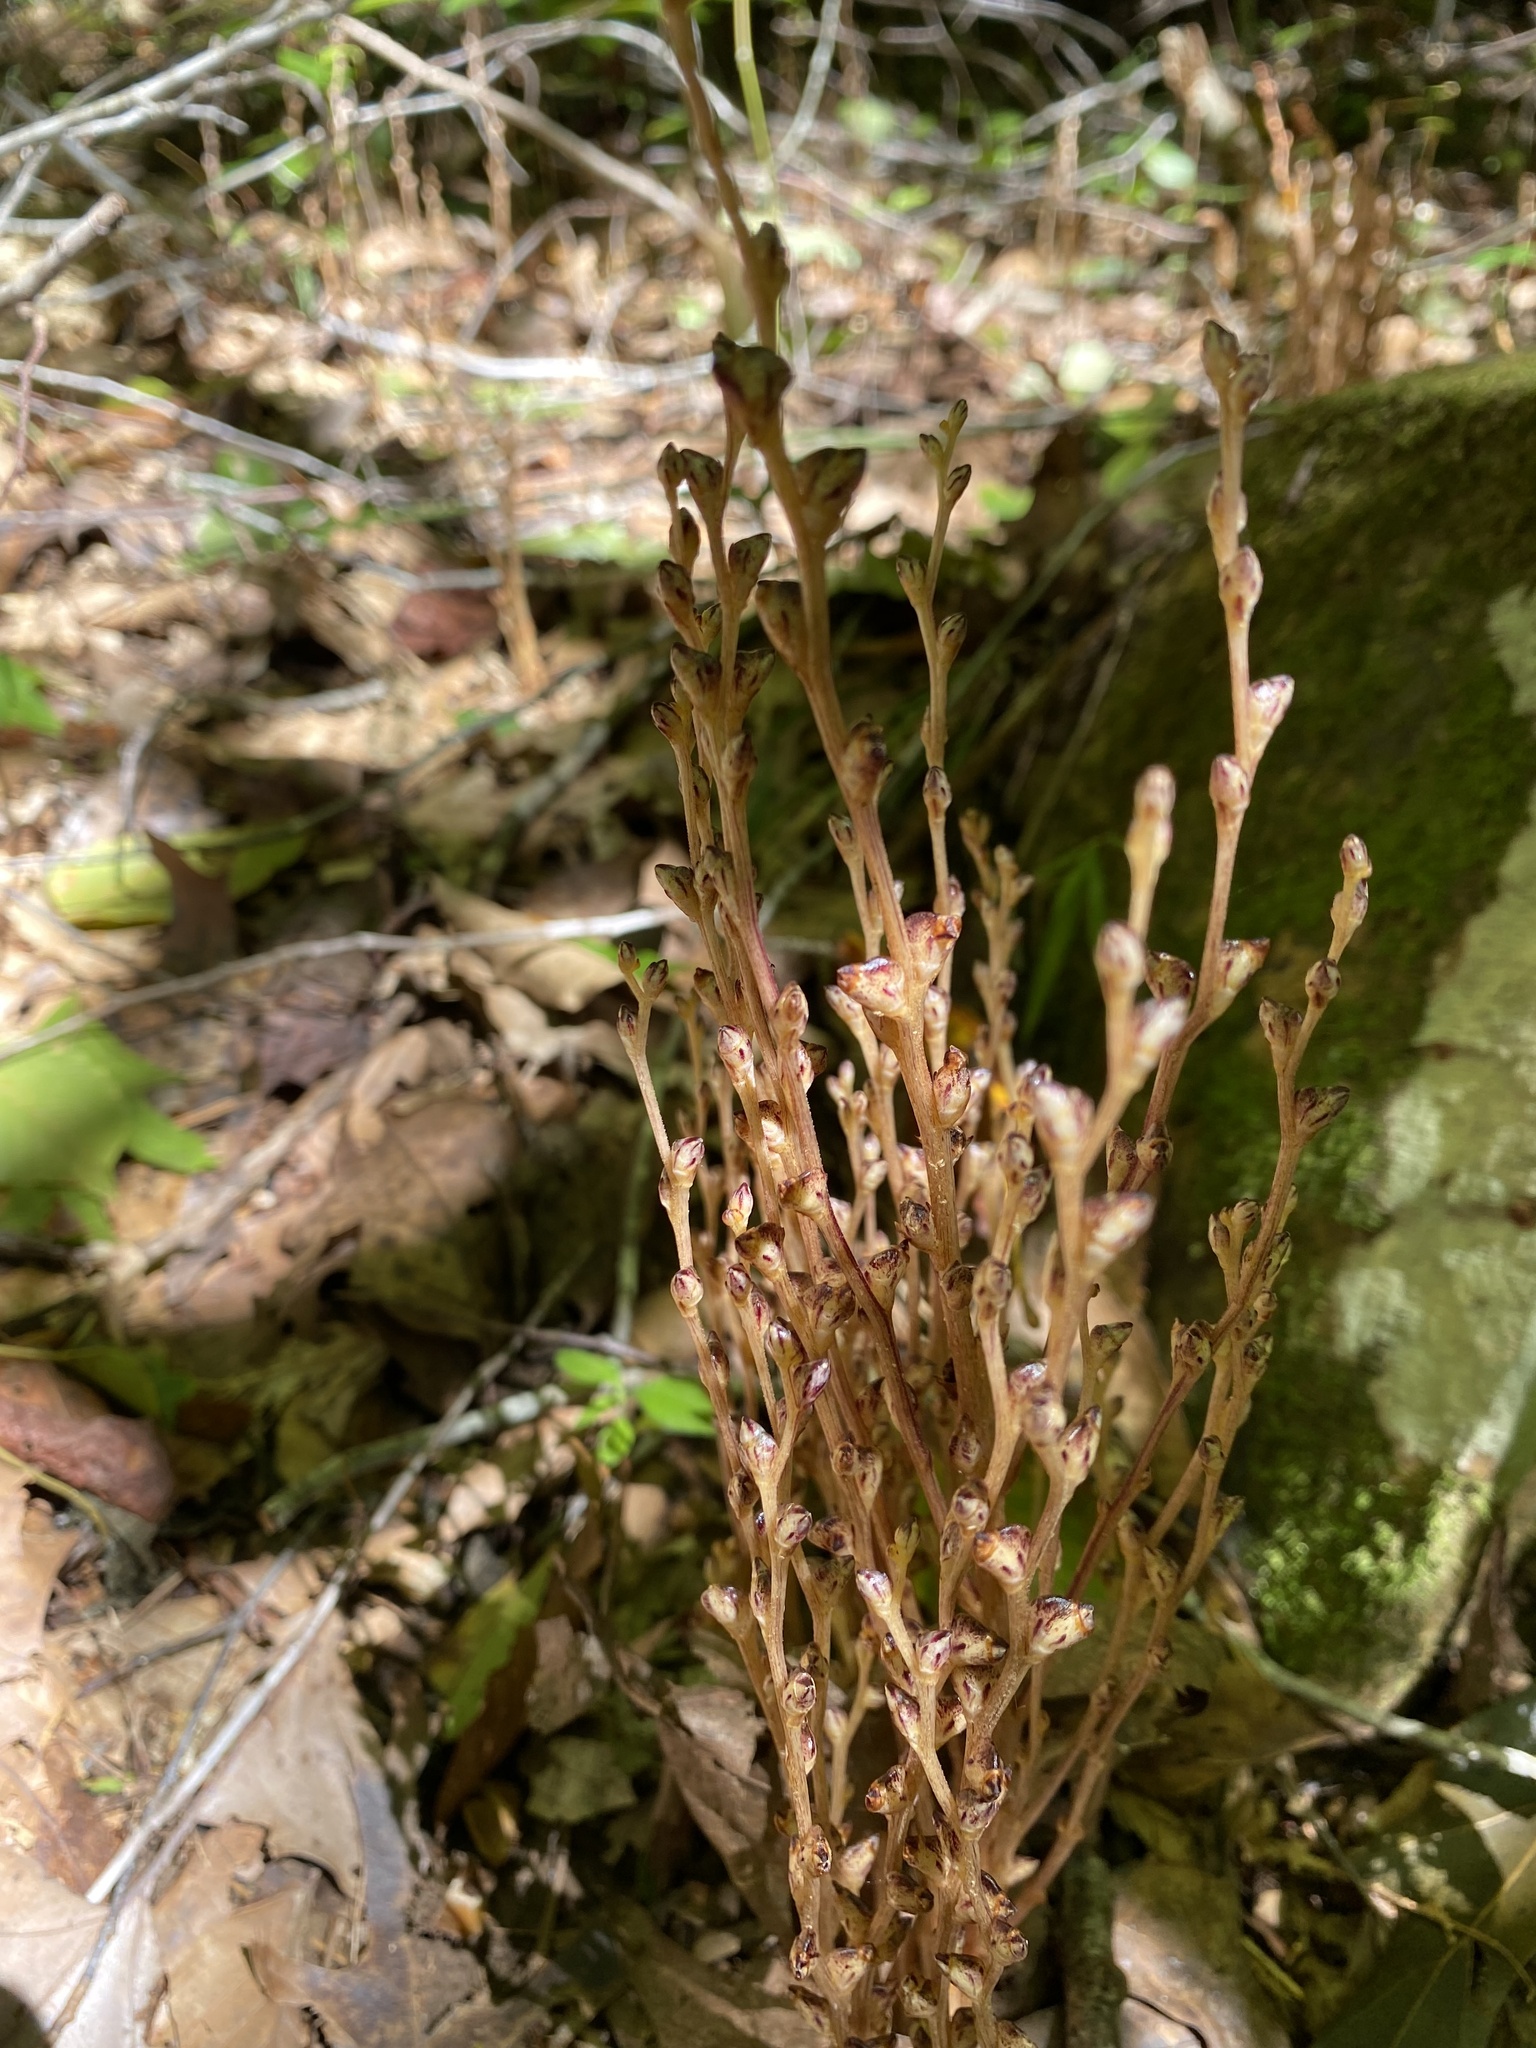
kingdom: Plantae
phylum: Tracheophyta
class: Magnoliopsida
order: Lamiales
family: Orobanchaceae
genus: Epifagus
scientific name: Epifagus virginiana
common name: Beechdrops
